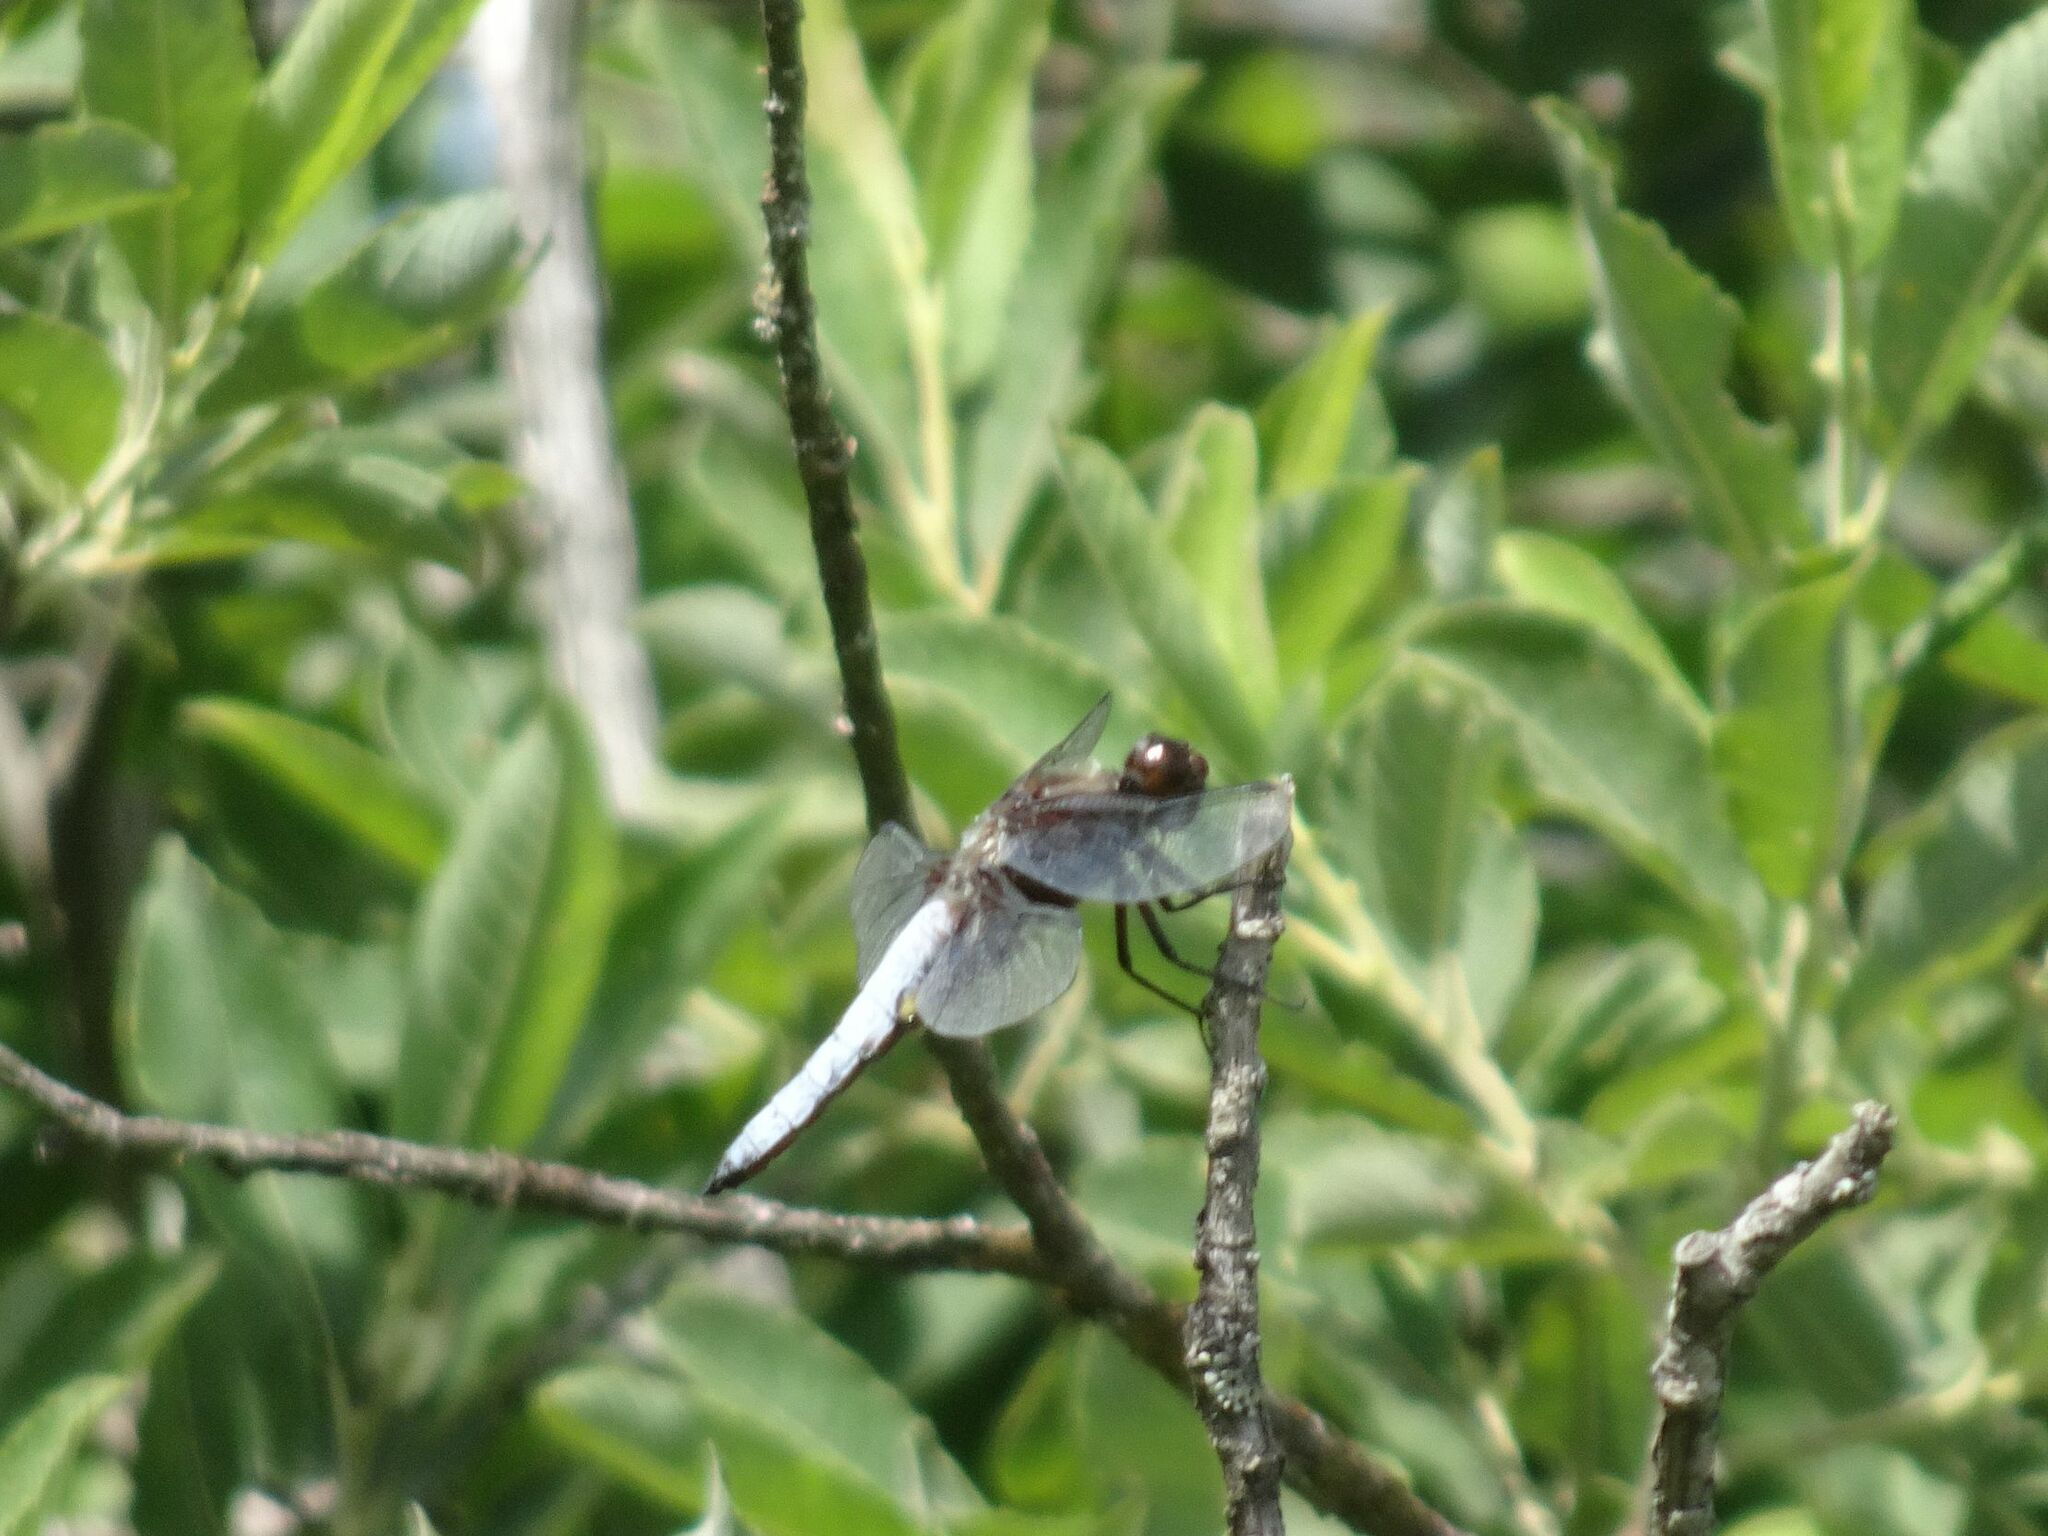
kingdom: Animalia
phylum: Arthropoda
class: Insecta
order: Odonata
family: Libellulidae
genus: Libellula
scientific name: Libellula depressa
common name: Broad-bodied chaser
